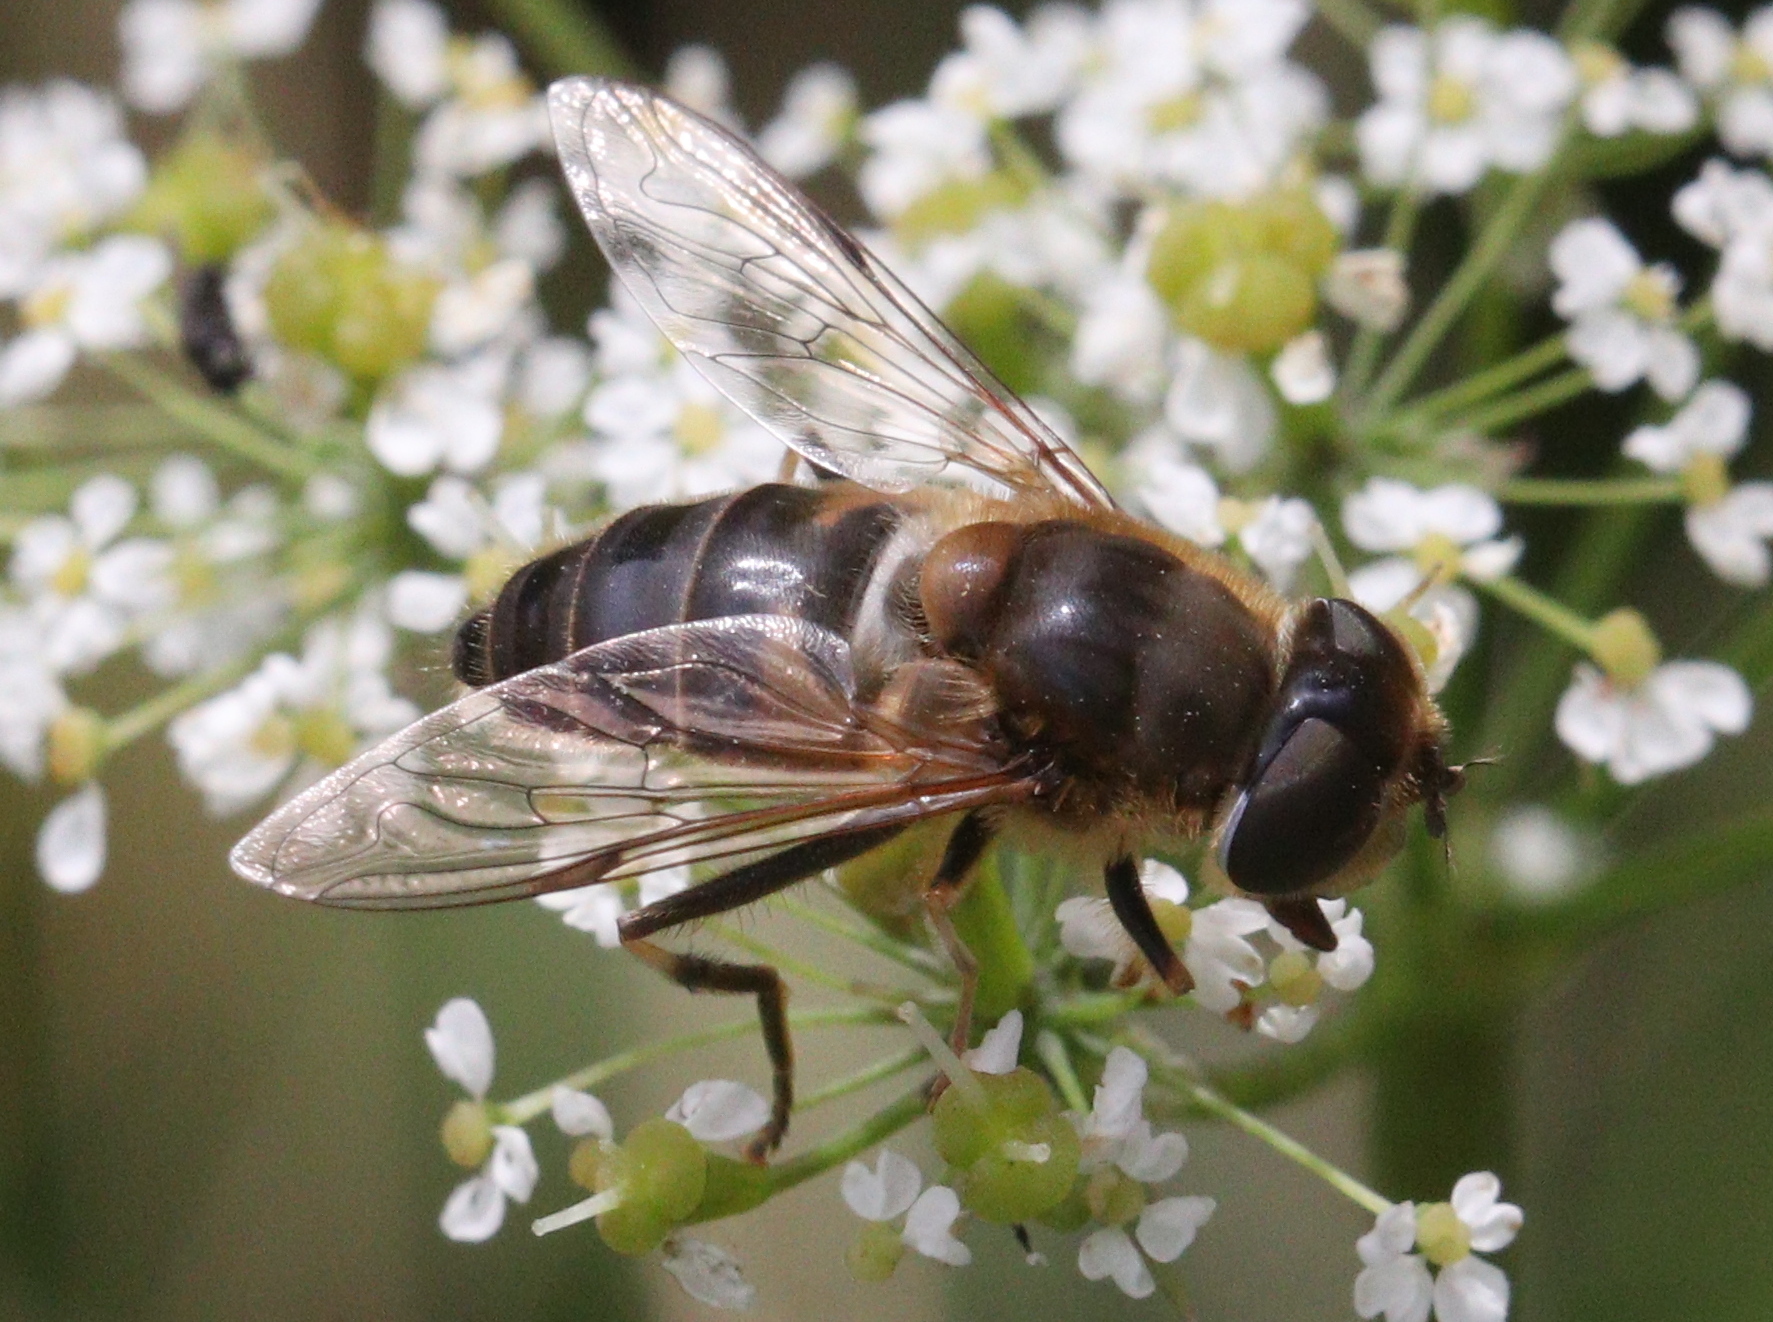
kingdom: Animalia
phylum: Arthropoda
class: Insecta
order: Diptera
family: Syrphidae
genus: Eristalis
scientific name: Eristalis pertinax
